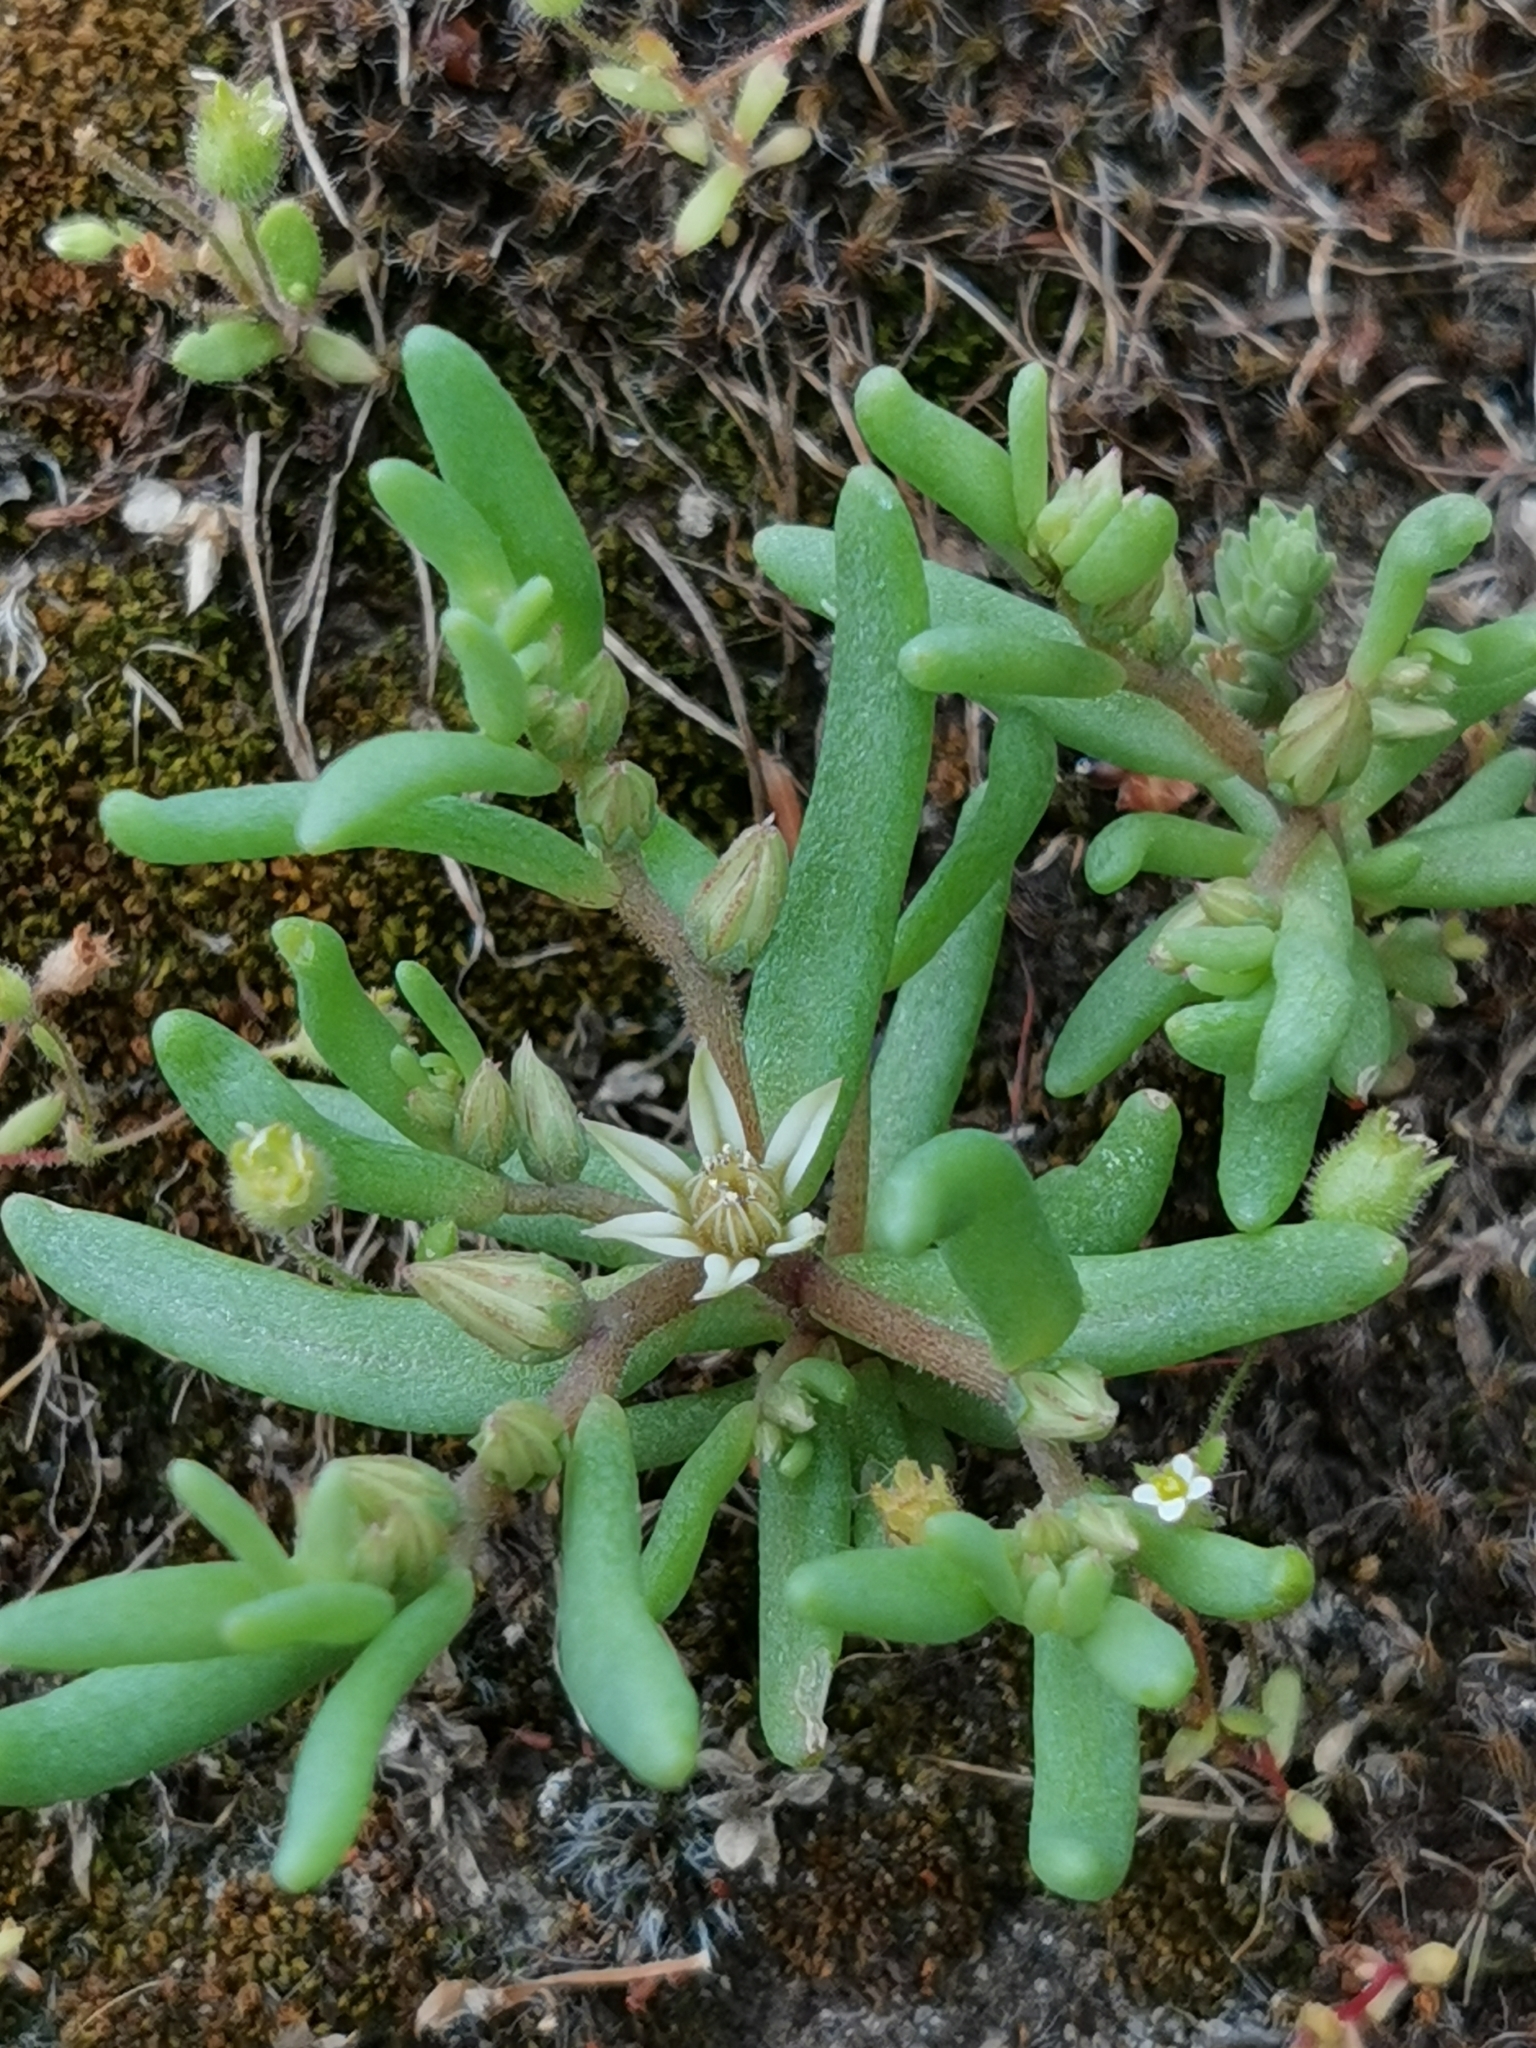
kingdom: Plantae
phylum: Tracheophyta
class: Magnoliopsida
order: Saxifragales
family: Crassulaceae
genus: Sedum
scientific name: Sedum hispanicum
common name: Spanish stonecrop
